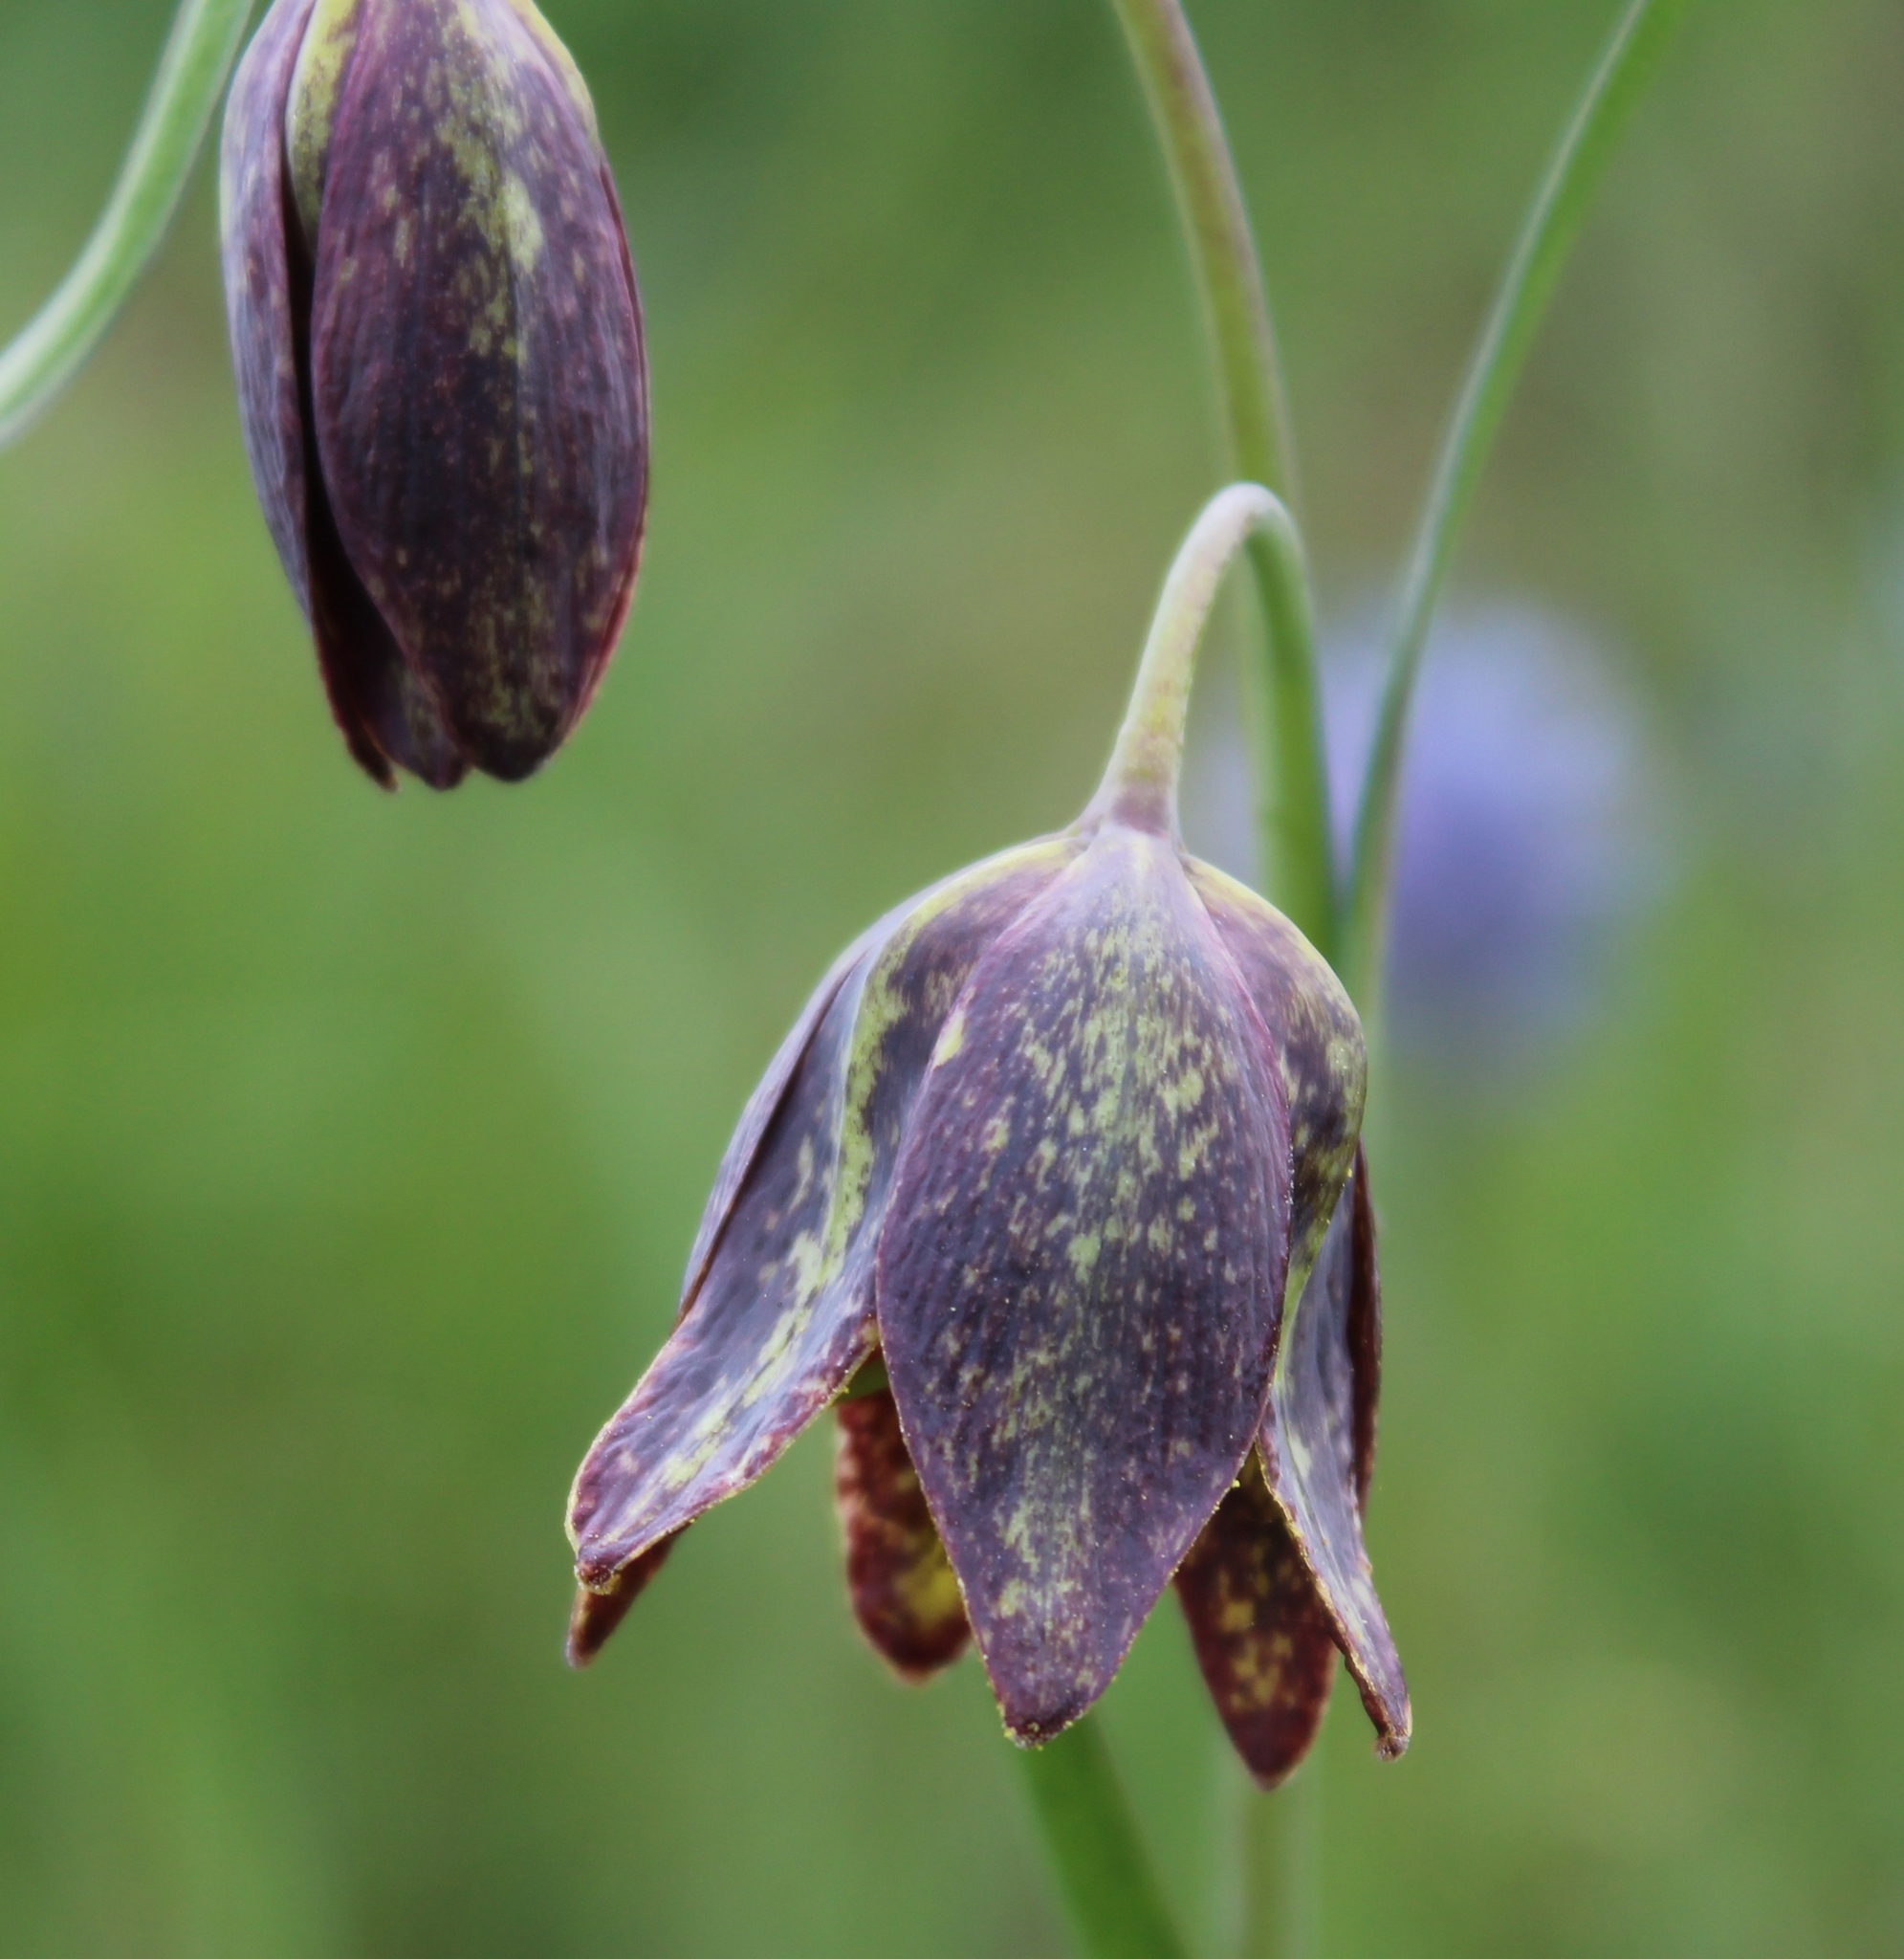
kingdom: Plantae
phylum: Tracheophyta
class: Liliopsida
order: Liliales
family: Liliaceae
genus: Fritillaria
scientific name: Fritillaria affinis
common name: Ojai fritillary
